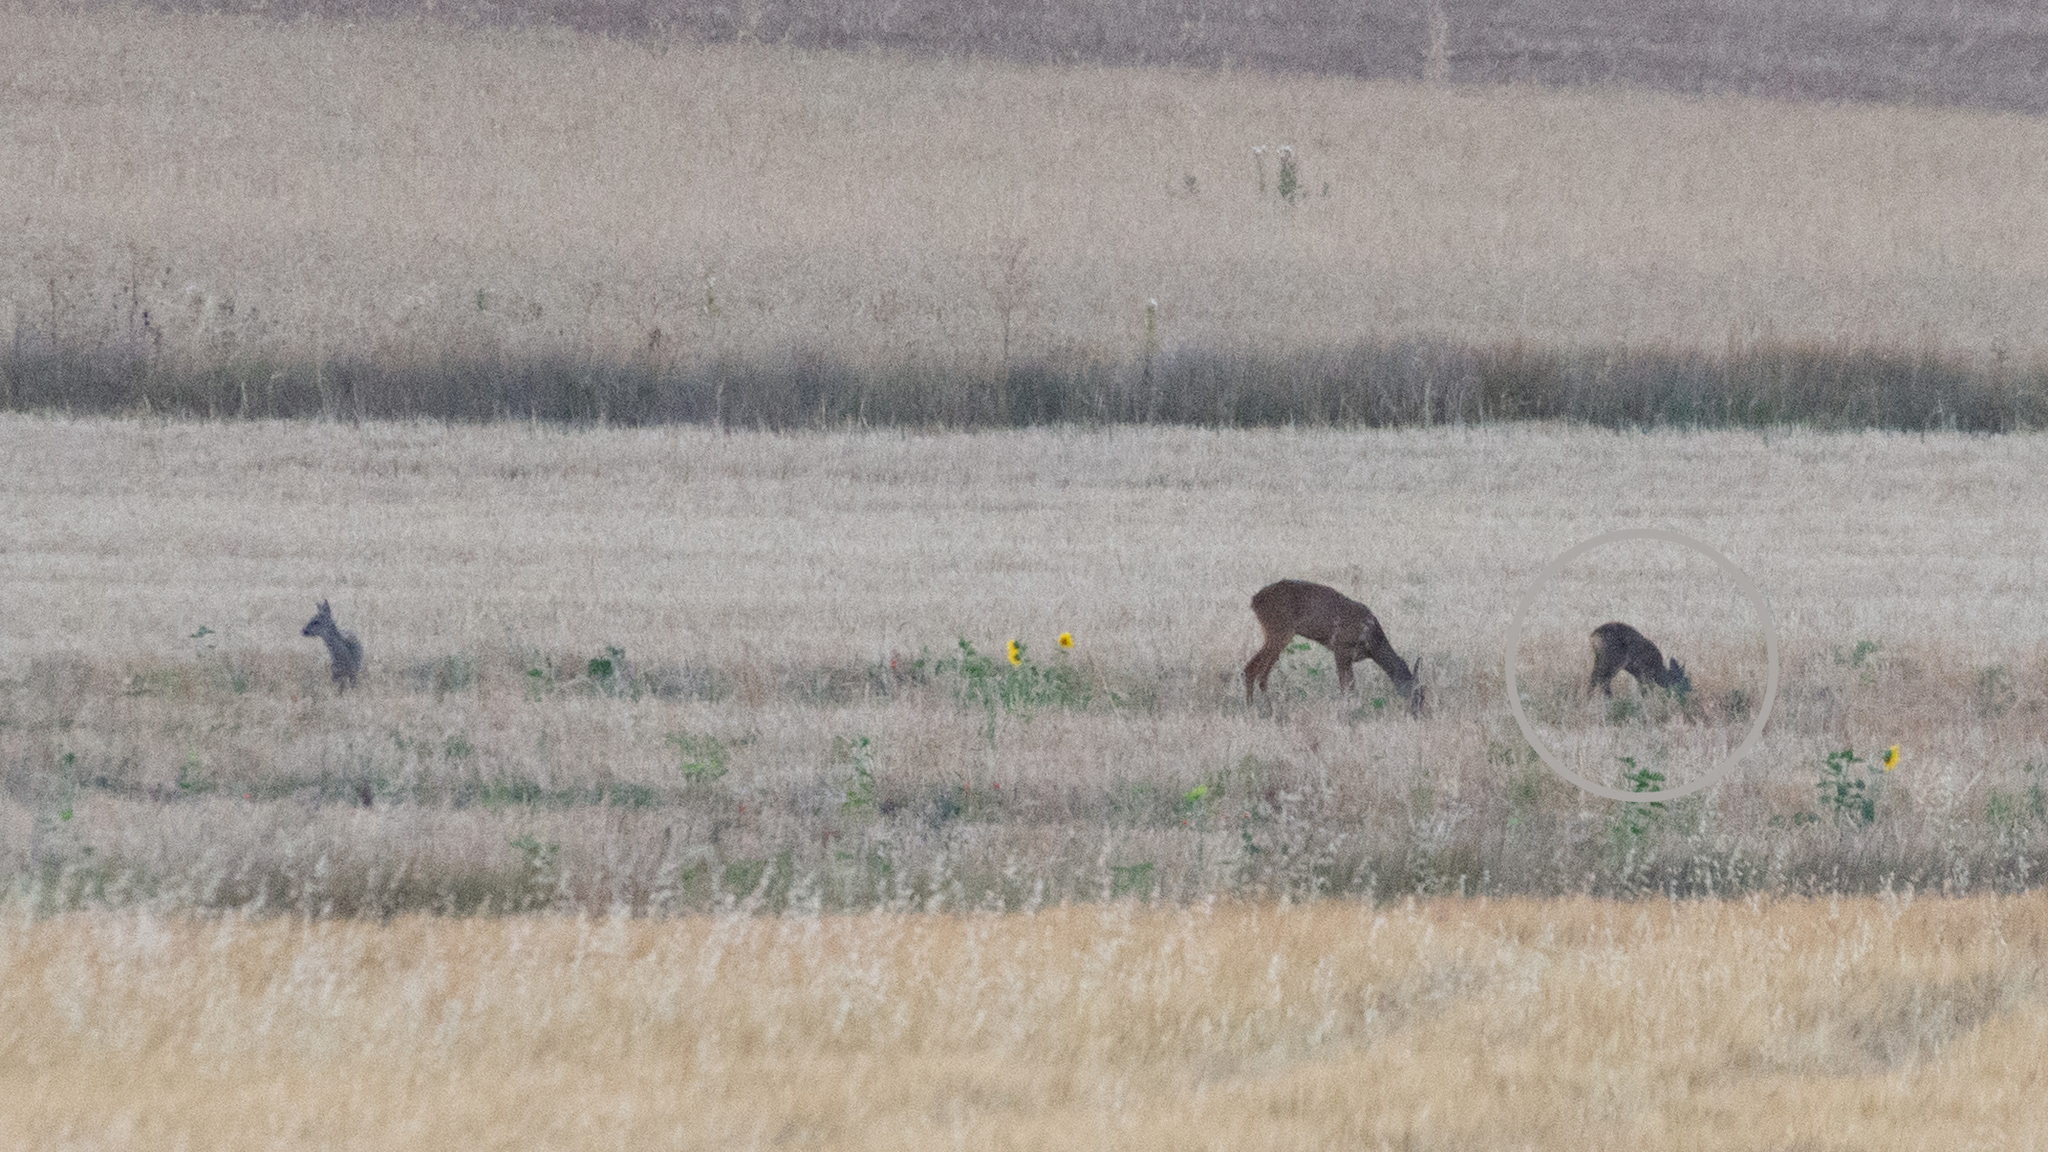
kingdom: Animalia
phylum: Chordata
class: Mammalia
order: Artiodactyla
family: Cervidae
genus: Capreolus
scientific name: Capreolus capreolus
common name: Western roe deer
